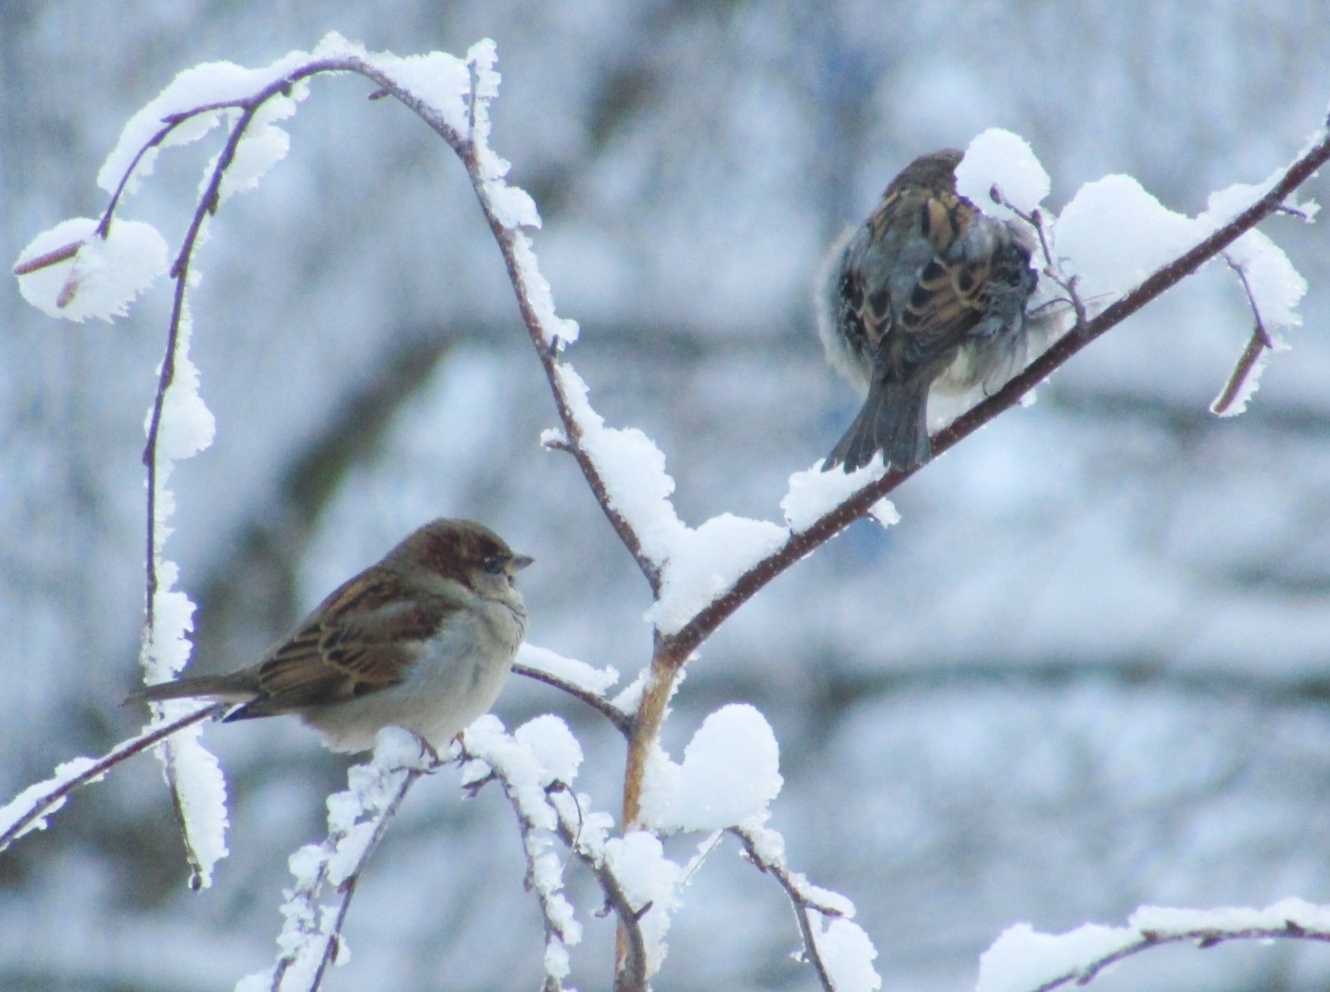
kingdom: Animalia
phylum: Chordata
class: Aves
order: Passeriformes
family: Passeridae
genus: Passer
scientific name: Passer domesticus
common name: House sparrow
